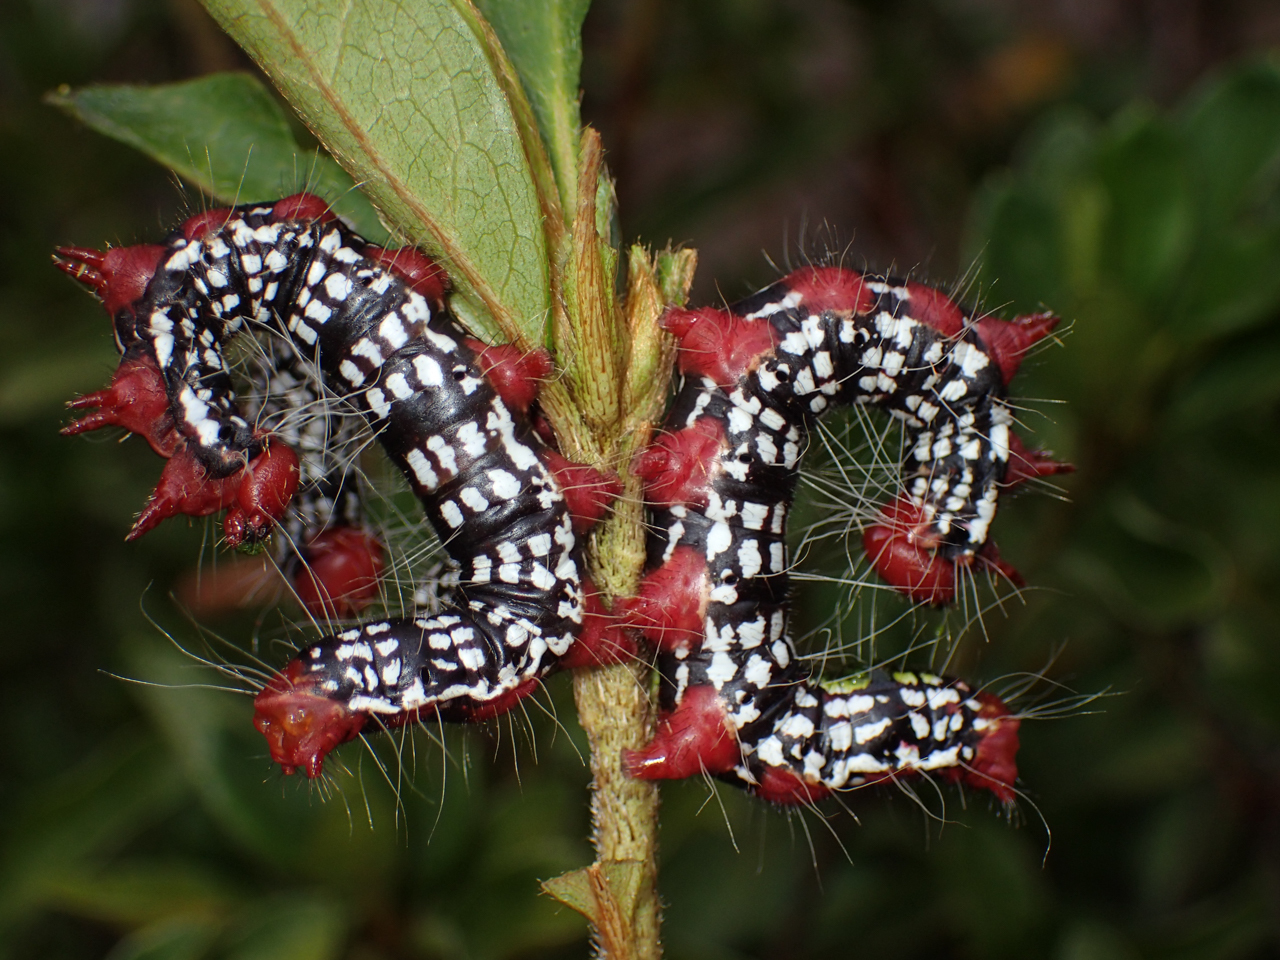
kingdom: Animalia
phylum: Arthropoda
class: Insecta
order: Lepidoptera
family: Notodontidae
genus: Datana
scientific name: Datana major
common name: Azalea caterpillar
